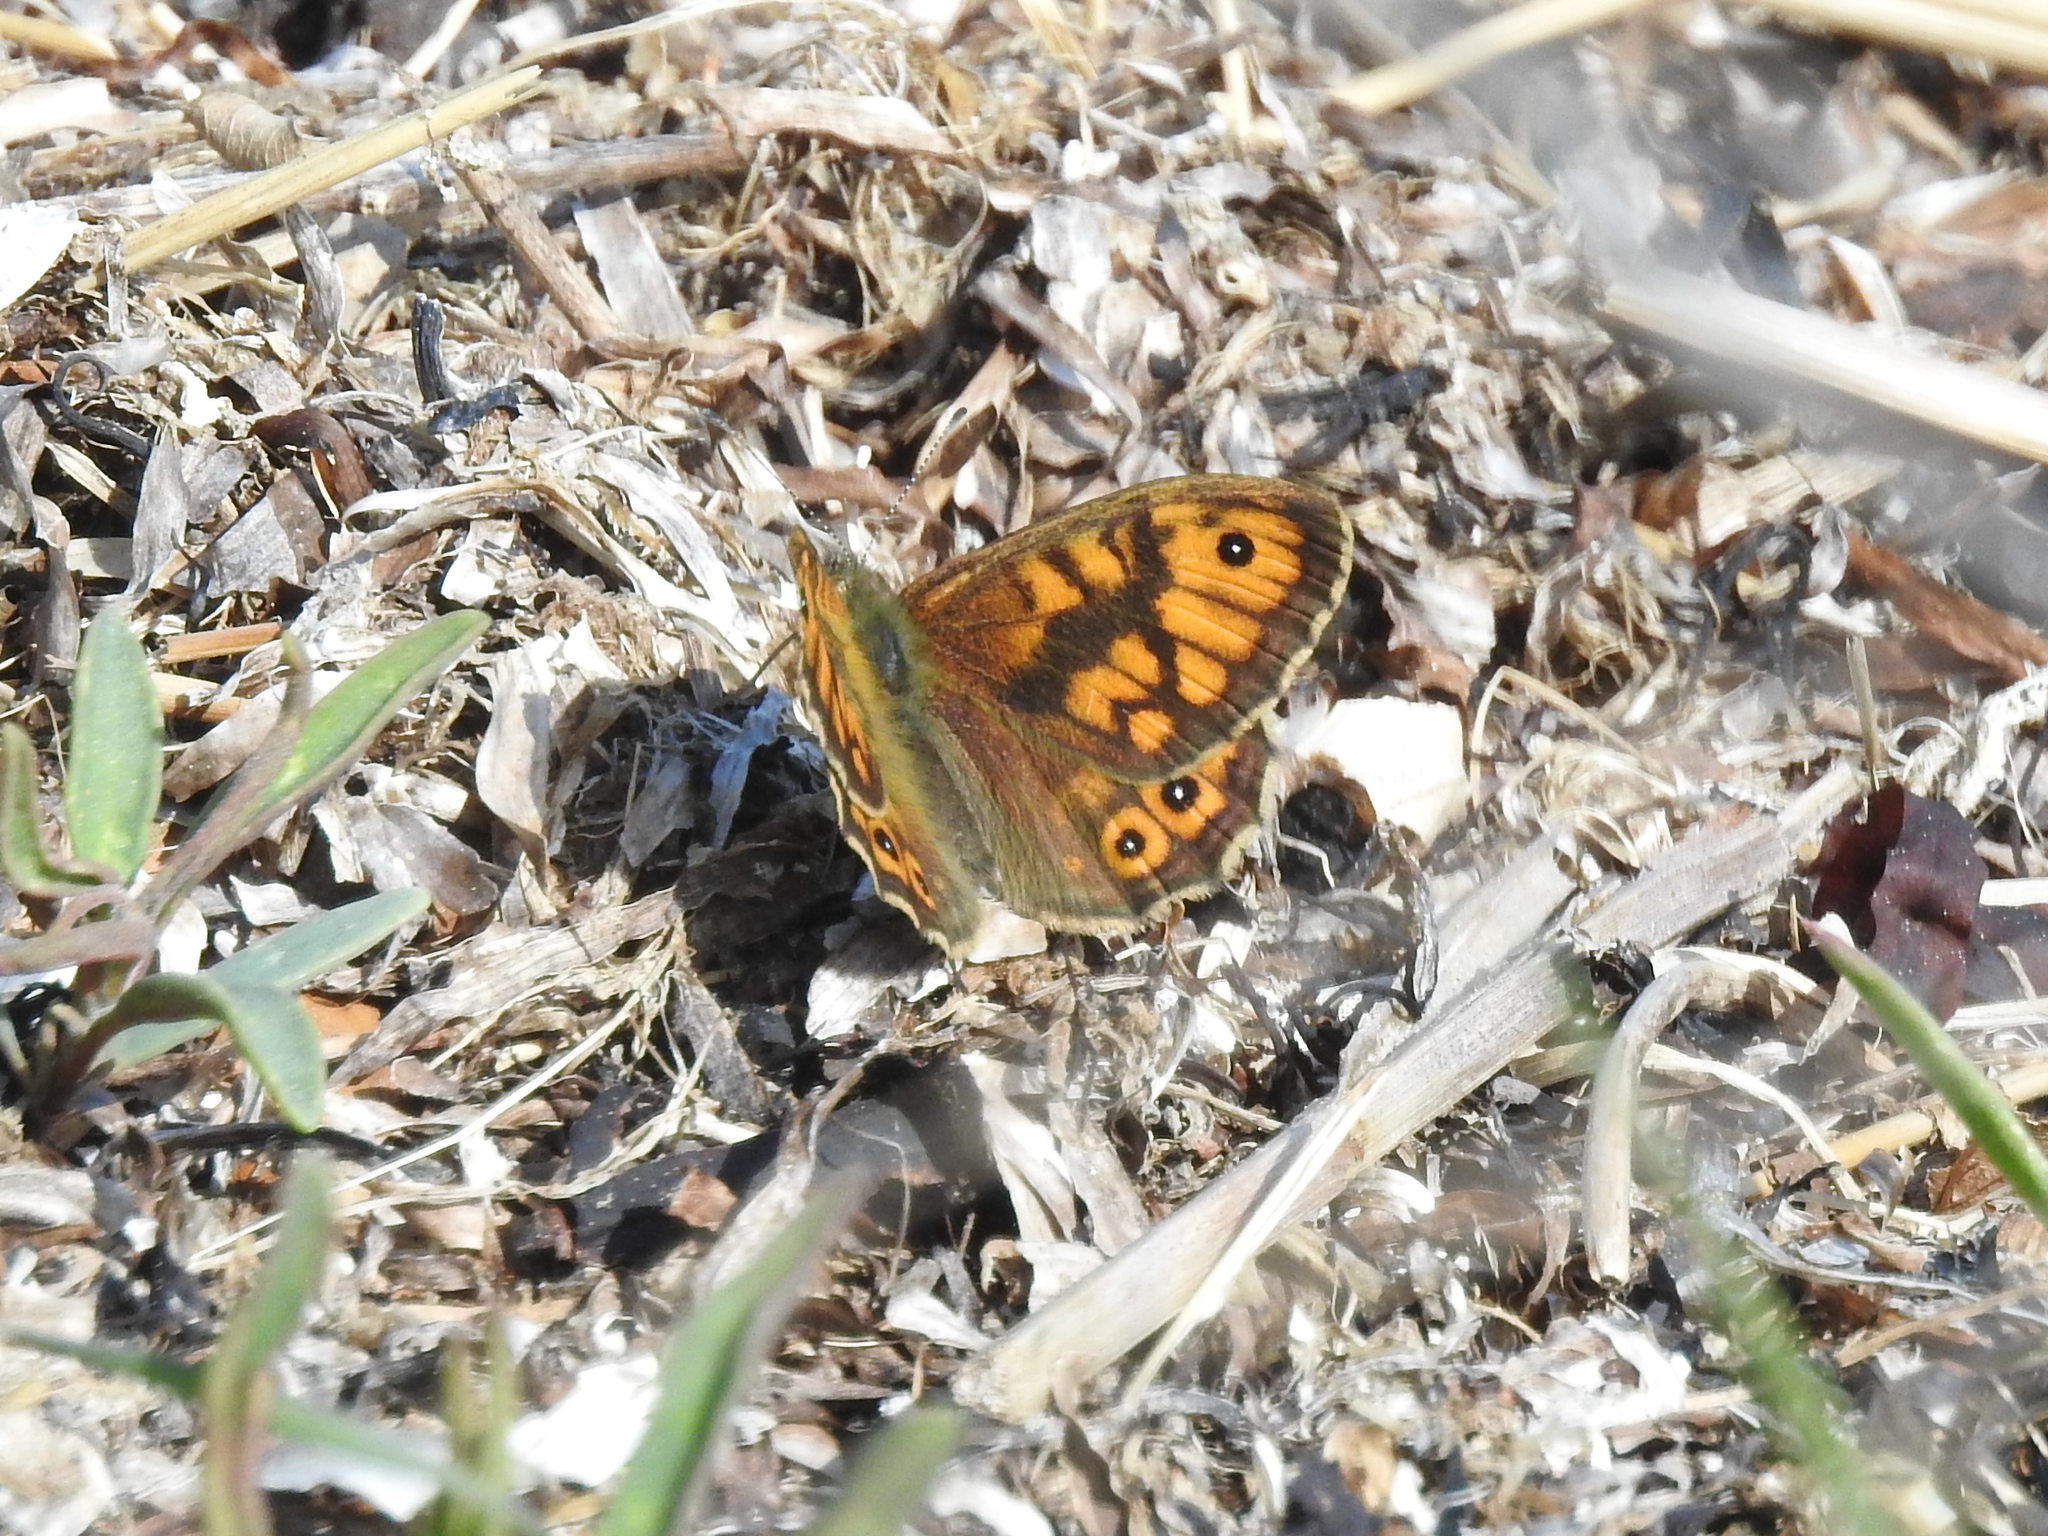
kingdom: Animalia
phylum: Arthropoda
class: Insecta
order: Lepidoptera
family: Nymphalidae
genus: Pararge
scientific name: Pararge Lasiommata megera
